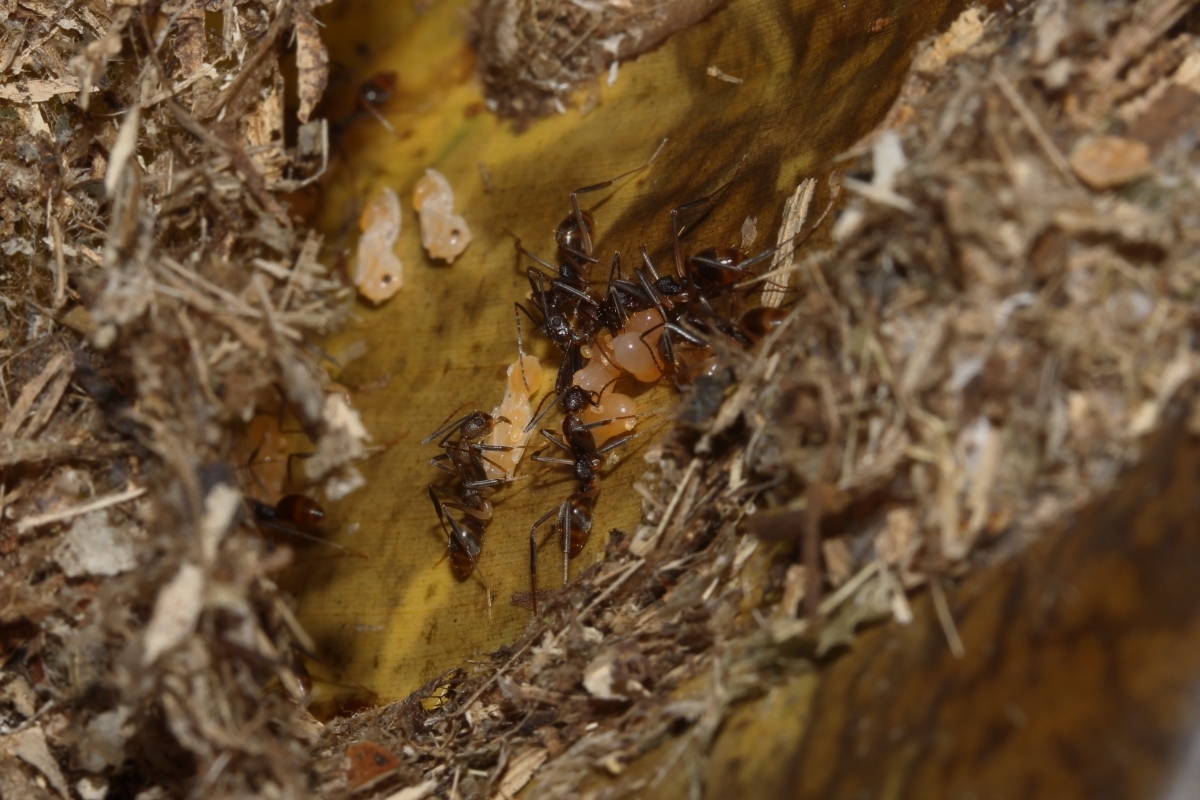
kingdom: Animalia
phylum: Arthropoda
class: Insecta
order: Hymenoptera
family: Formicidae
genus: Dolichoderus
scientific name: Dolichoderus imitator
